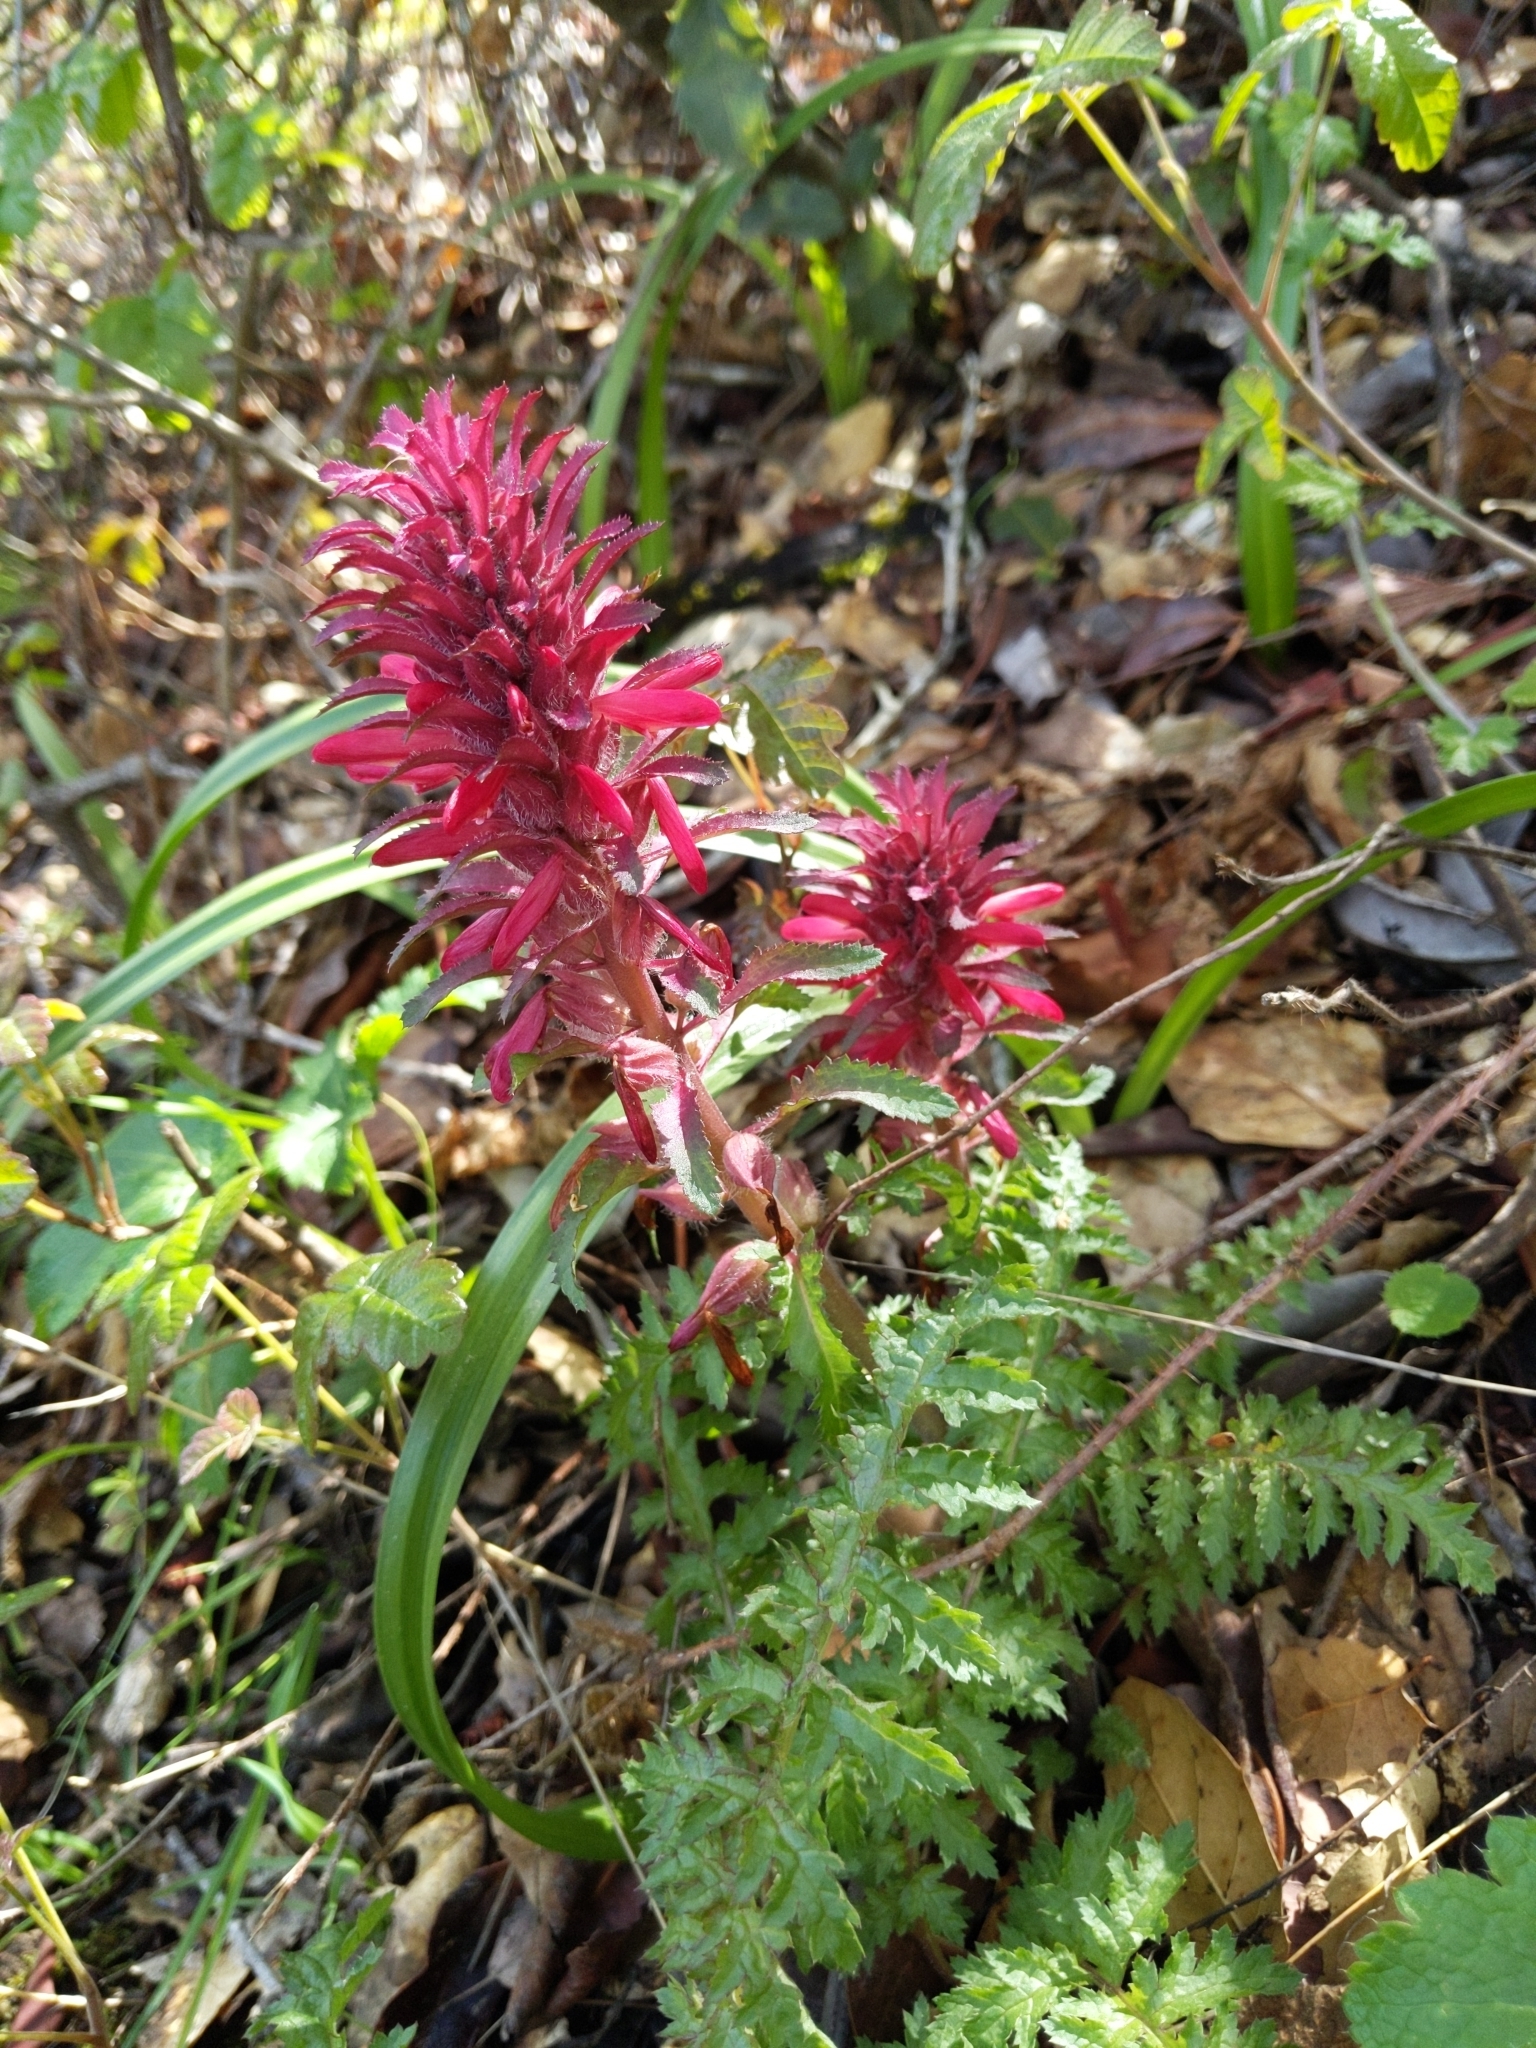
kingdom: Plantae
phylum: Tracheophyta
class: Magnoliopsida
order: Lamiales
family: Orobanchaceae
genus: Pedicularis
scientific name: Pedicularis densiflora
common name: Indian warrior
